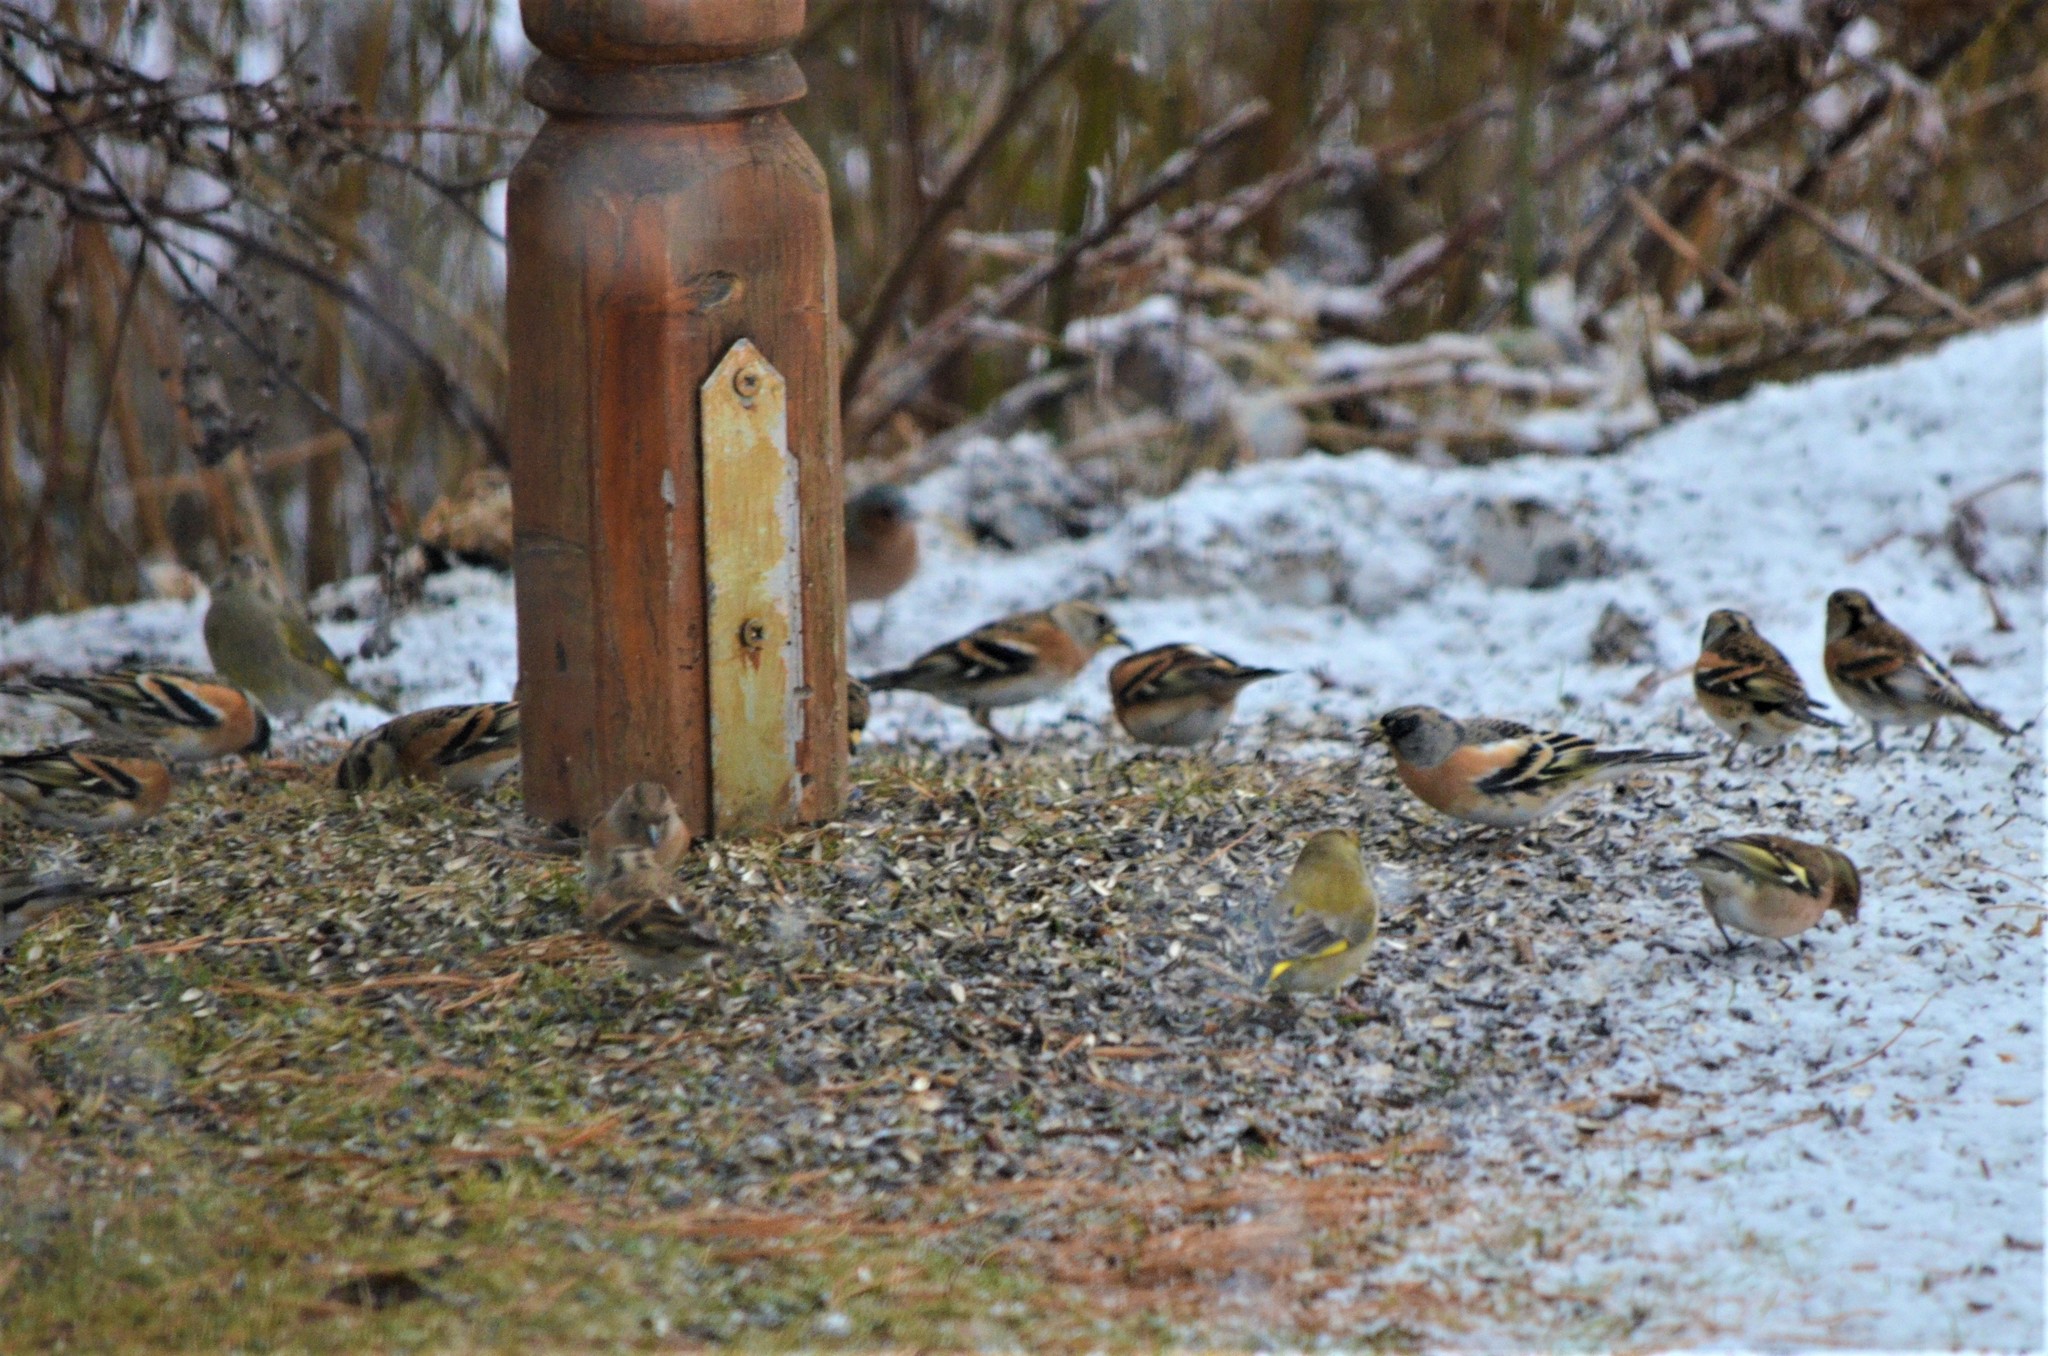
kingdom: Animalia
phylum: Chordata
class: Aves
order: Passeriformes
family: Fringillidae
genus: Fringilla
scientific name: Fringilla montifringilla
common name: Brambling
